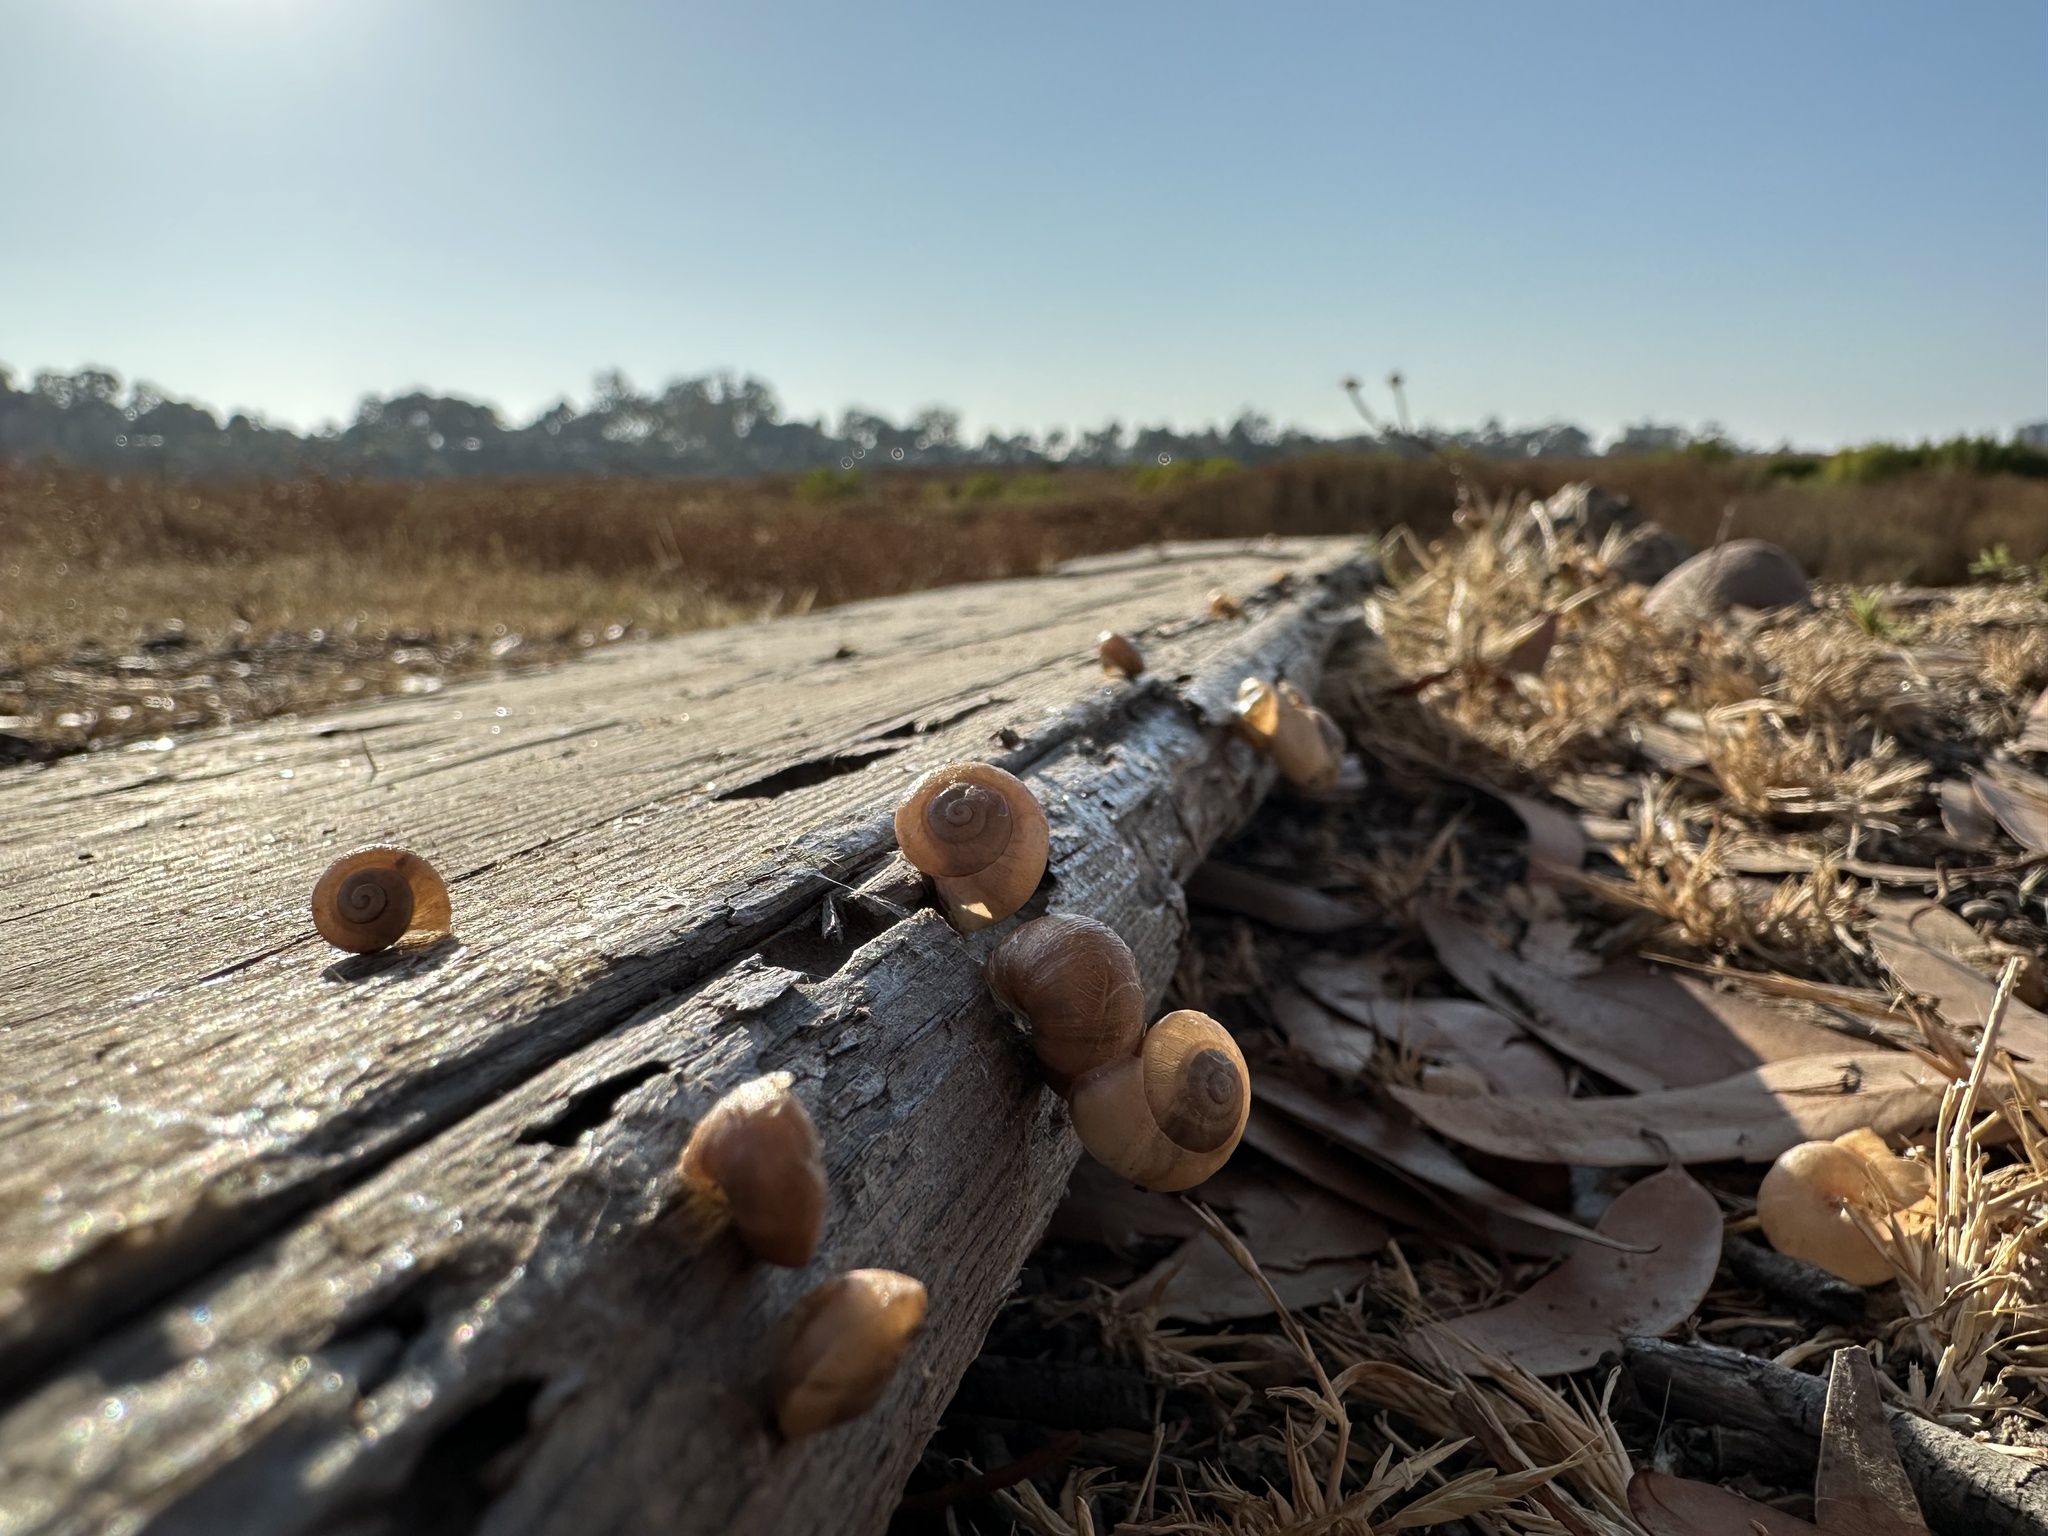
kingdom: Animalia
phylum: Mollusca
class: Gastropoda
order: Stylommatophora
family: Helicidae
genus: Theba
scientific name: Theba pisana
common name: White snail
